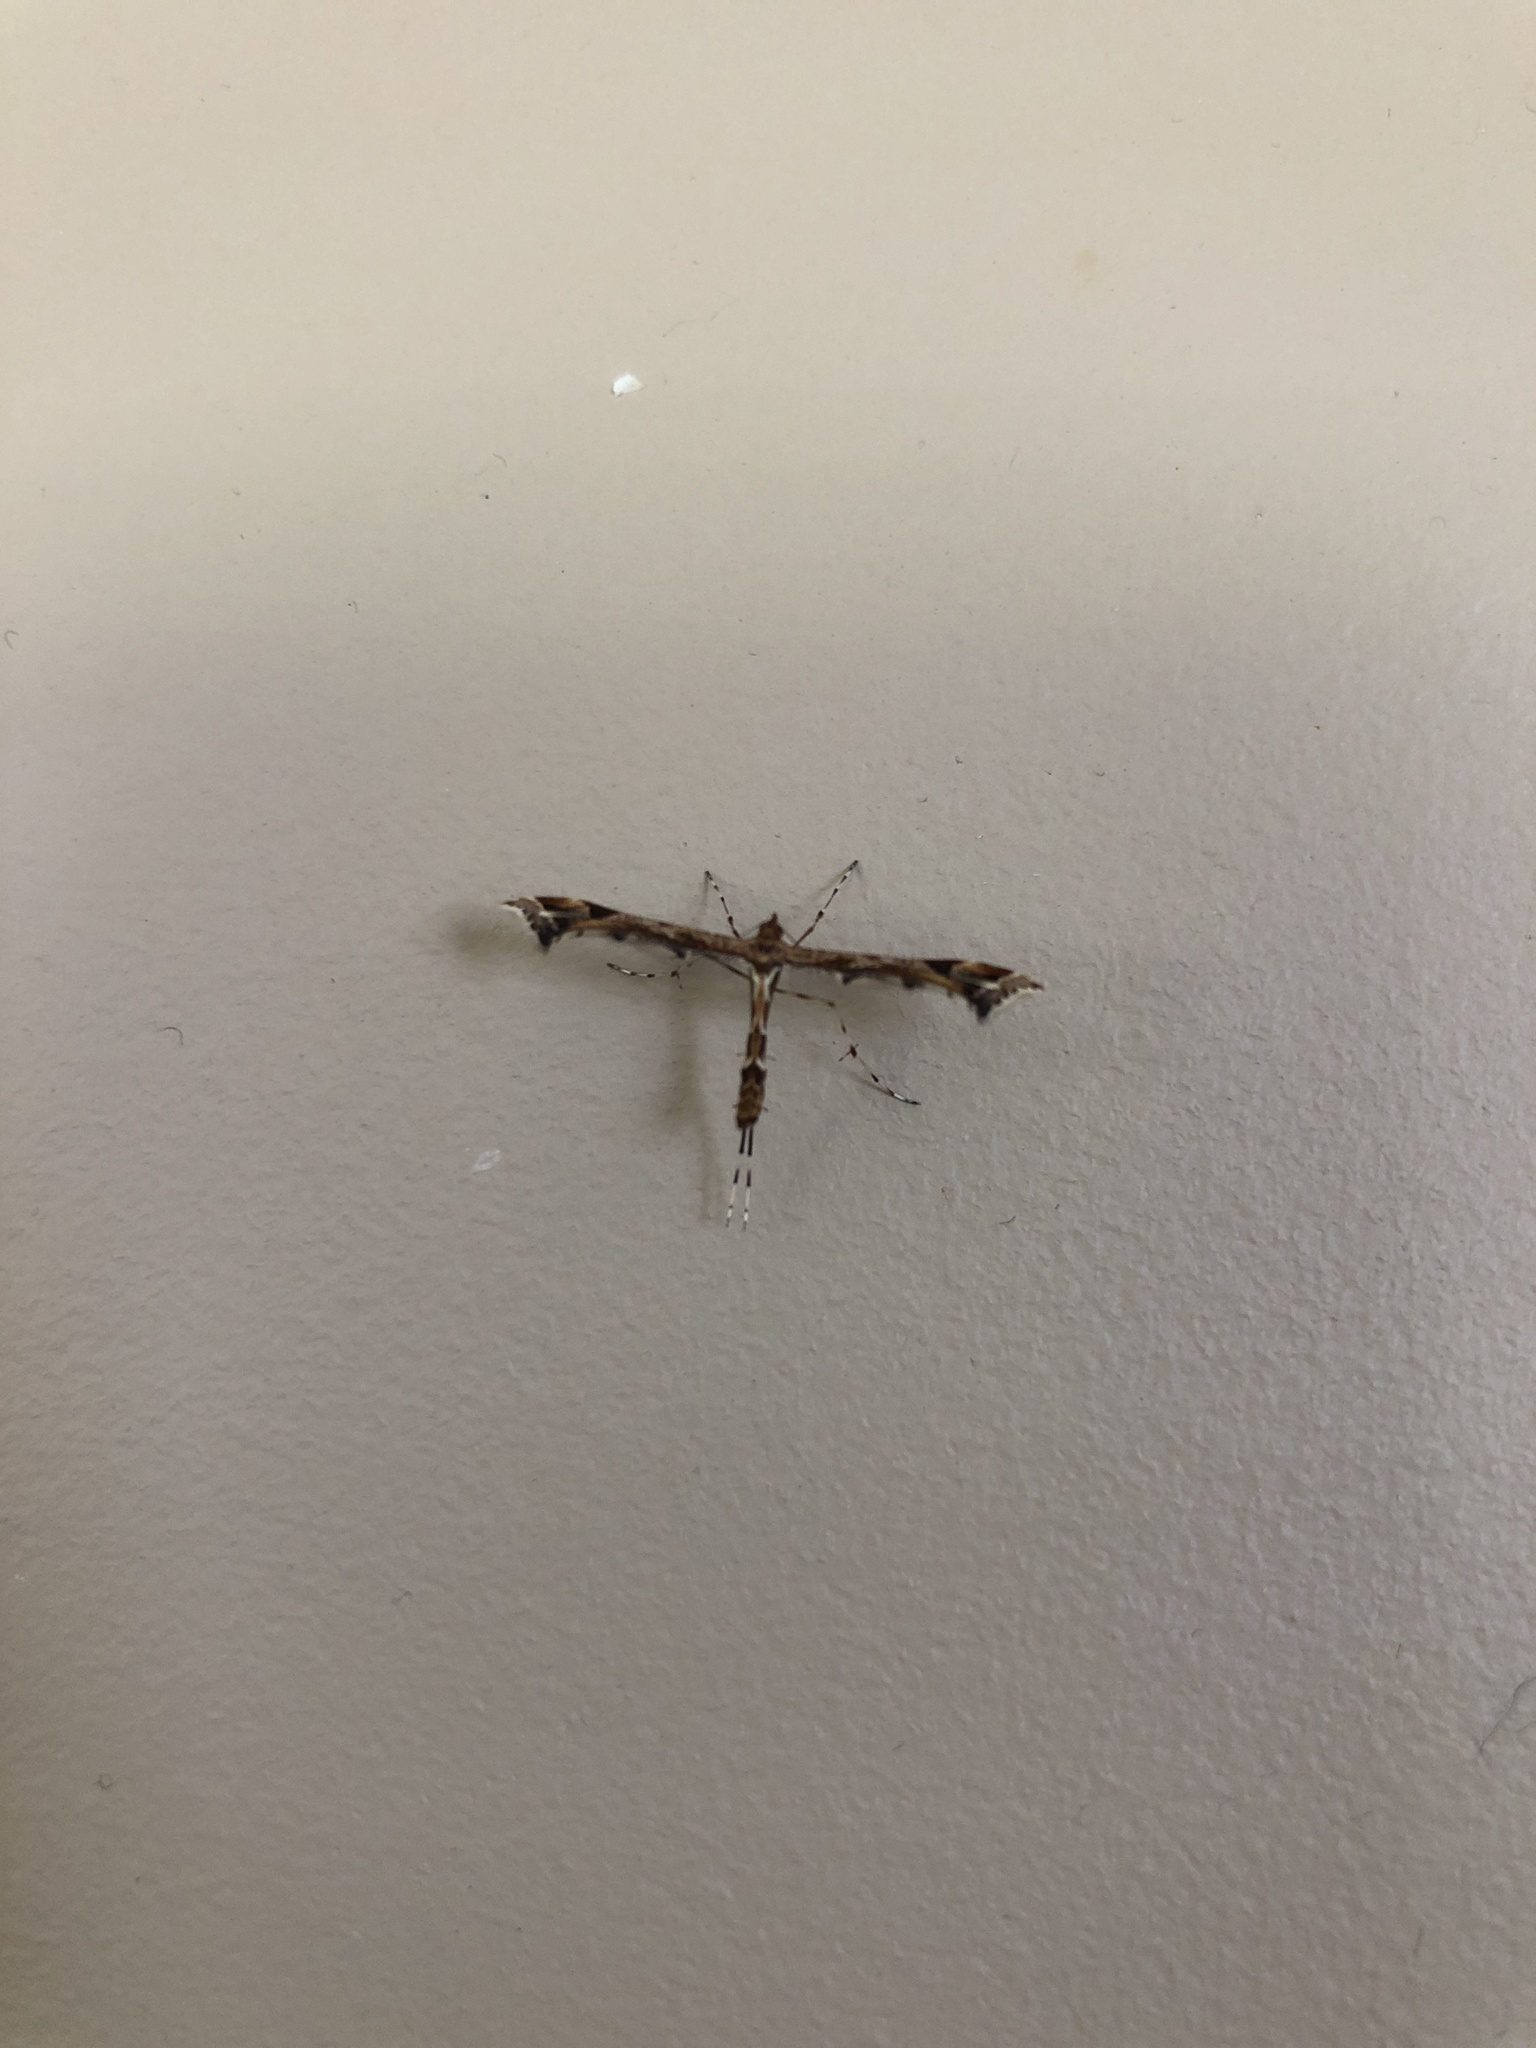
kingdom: Animalia
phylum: Arthropoda
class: Insecta
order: Lepidoptera
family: Pterophoridae
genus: Amblyptilia
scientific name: Amblyptilia acanthadactyla
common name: Beautiful plume
